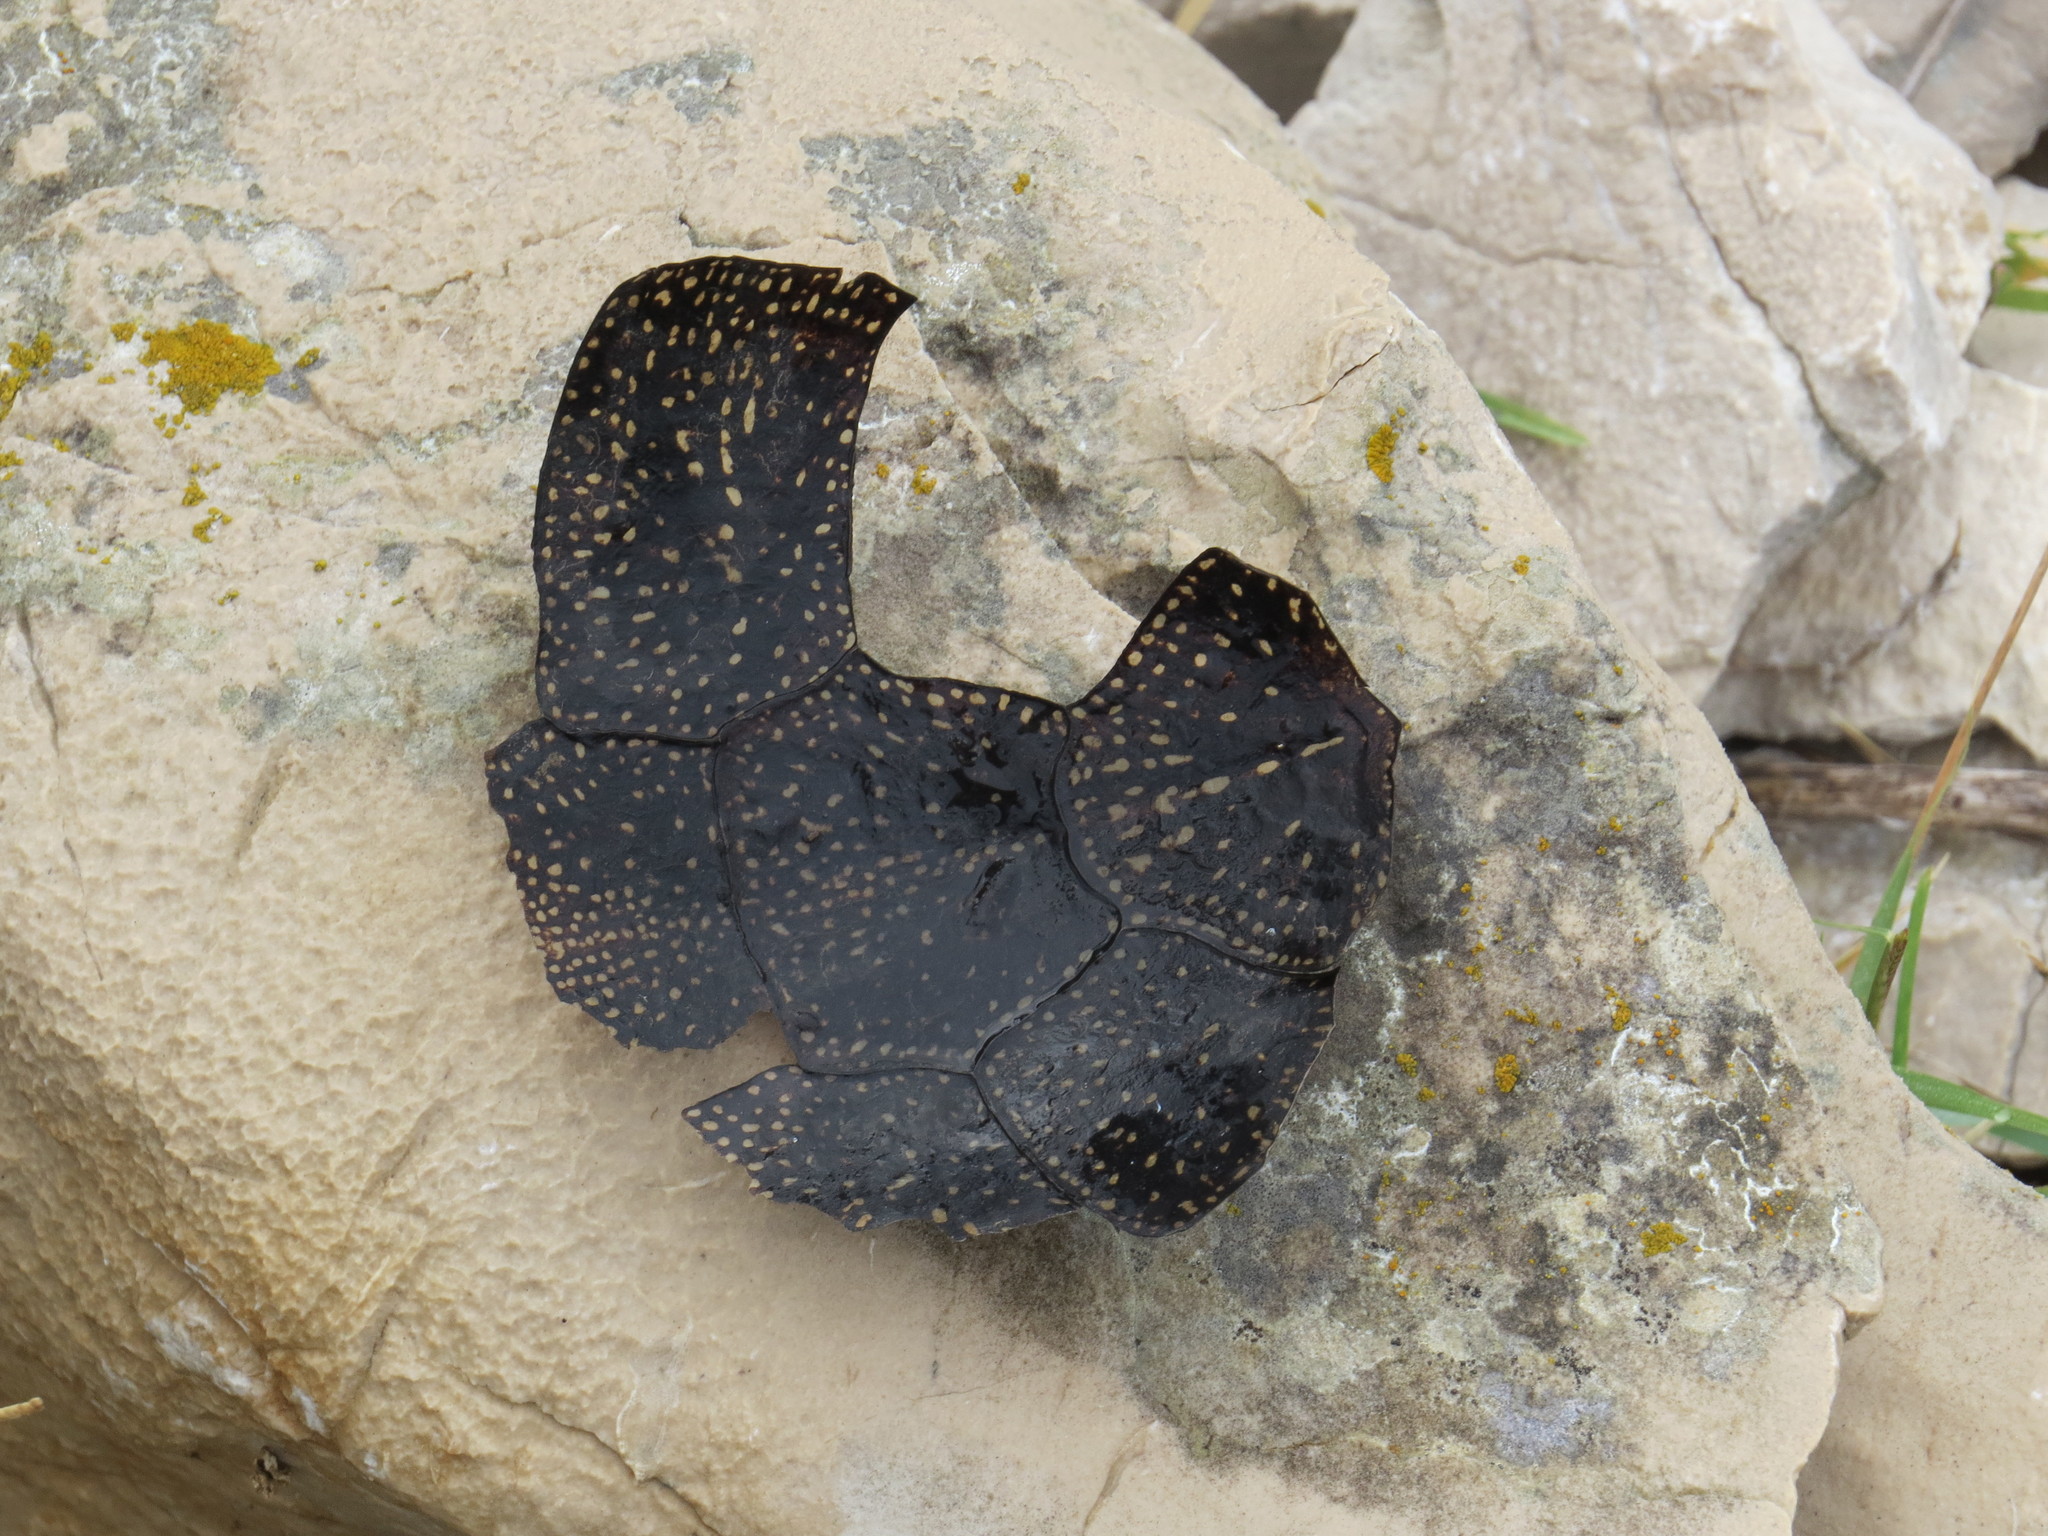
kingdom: Animalia
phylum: Chordata
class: Testudines
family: Emydidae
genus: Emys
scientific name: Emys orbicularis
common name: European pond turtle
